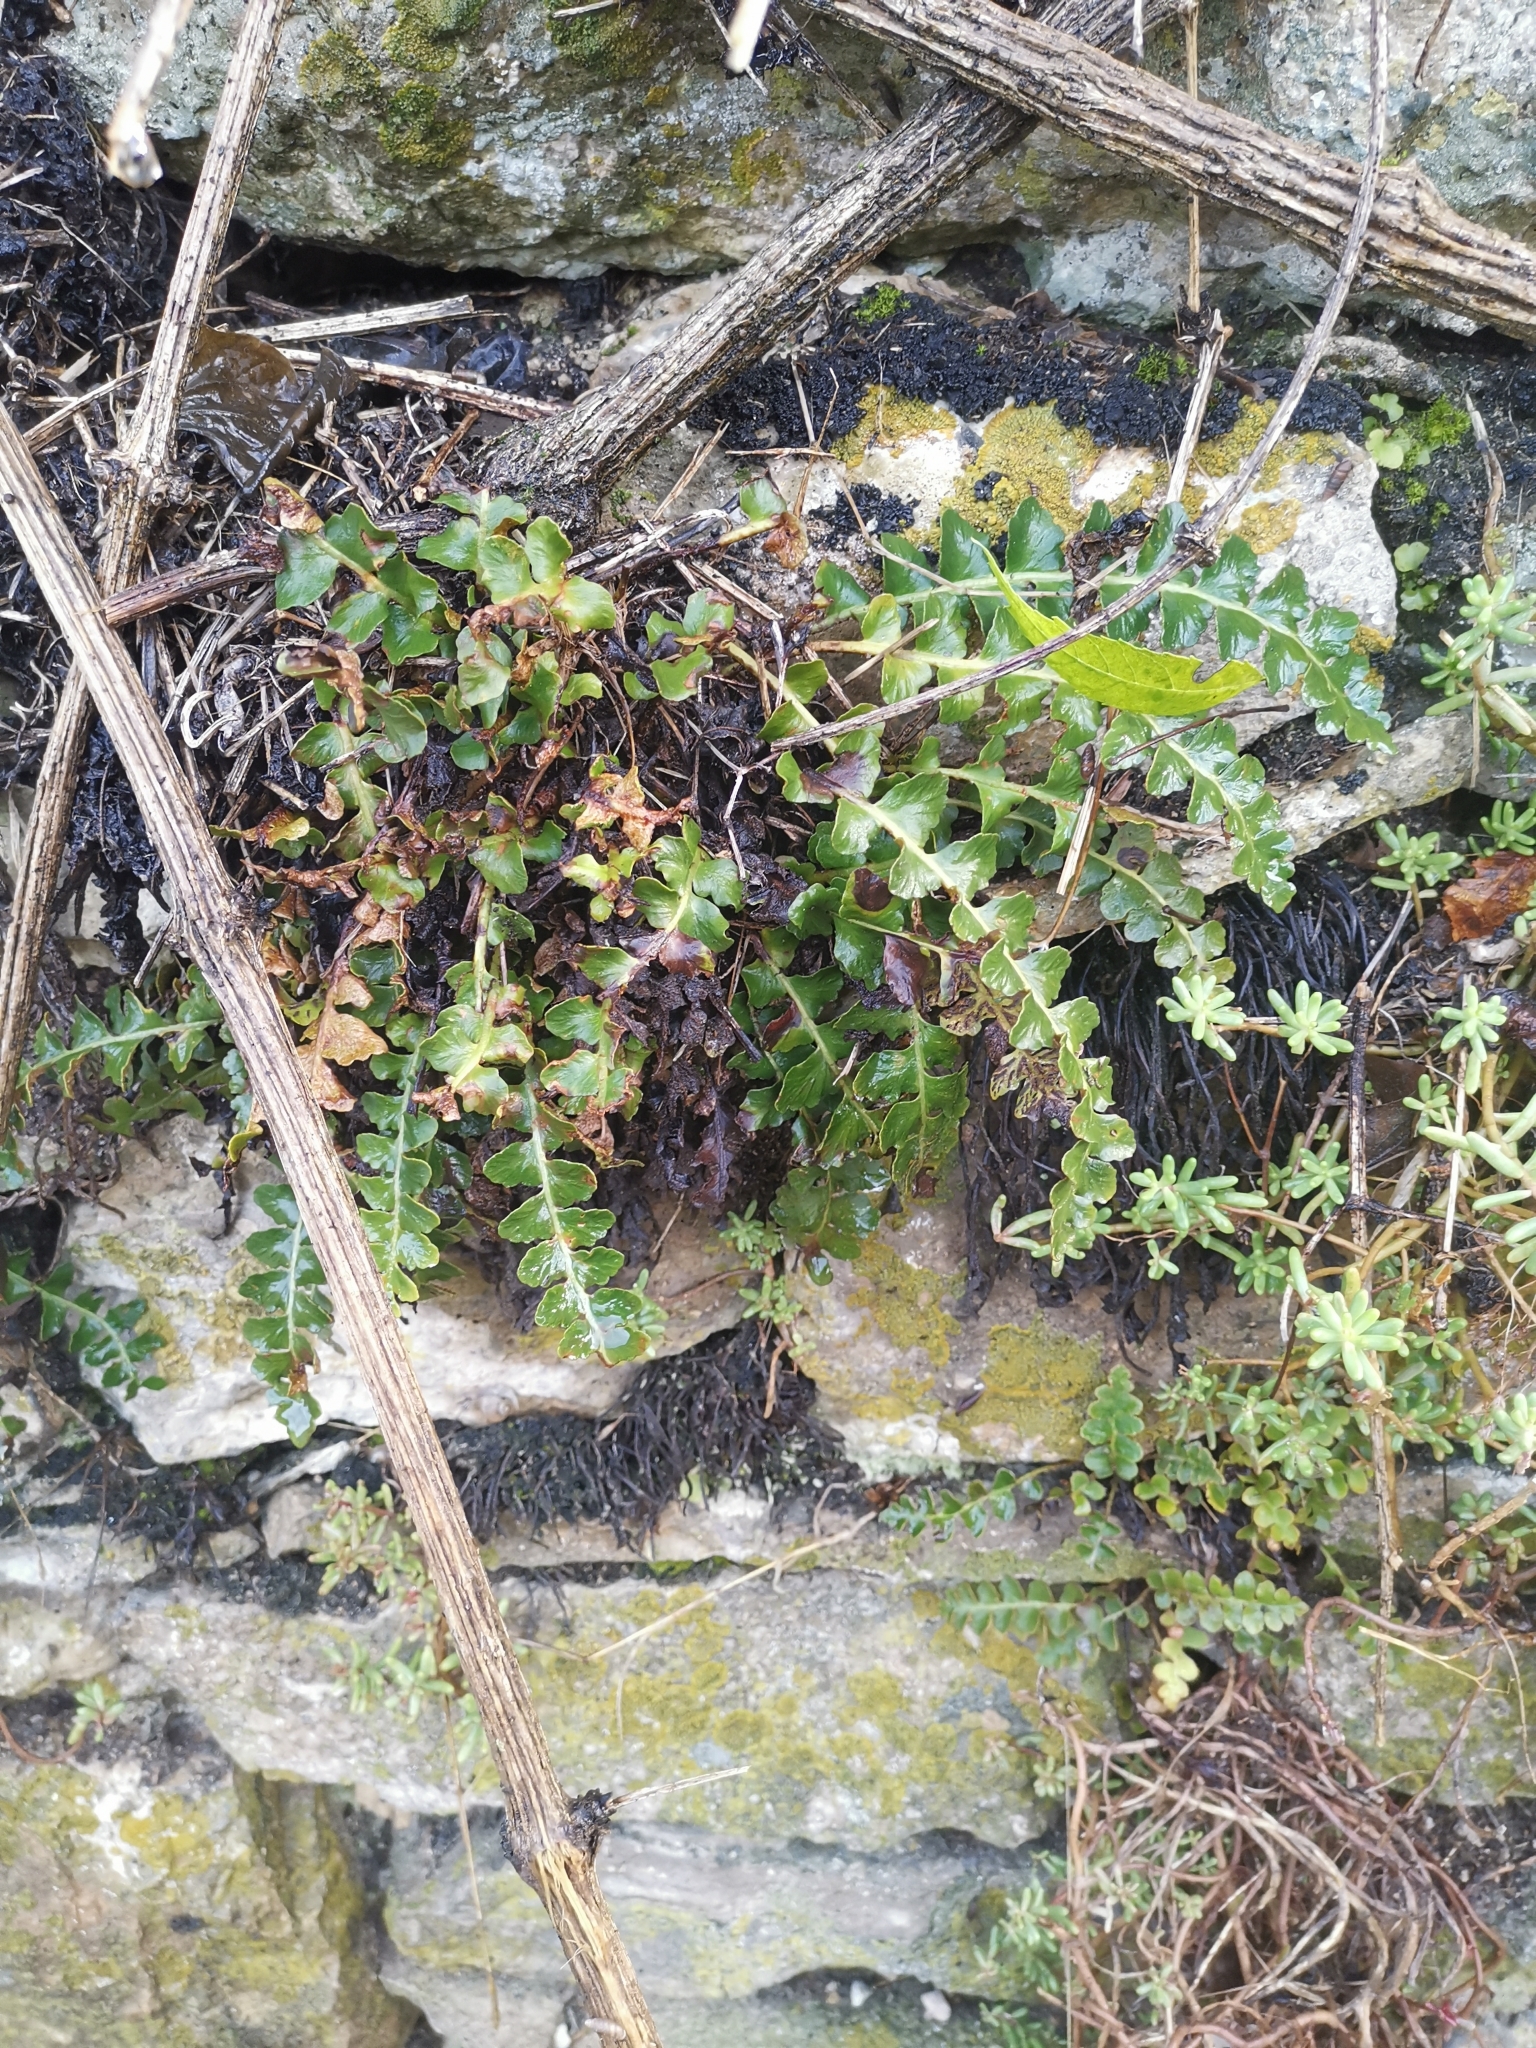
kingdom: Plantae
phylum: Tracheophyta
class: Polypodiopsida
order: Polypodiales
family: Aspleniaceae
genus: Asplenium
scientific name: Asplenium ceterach
